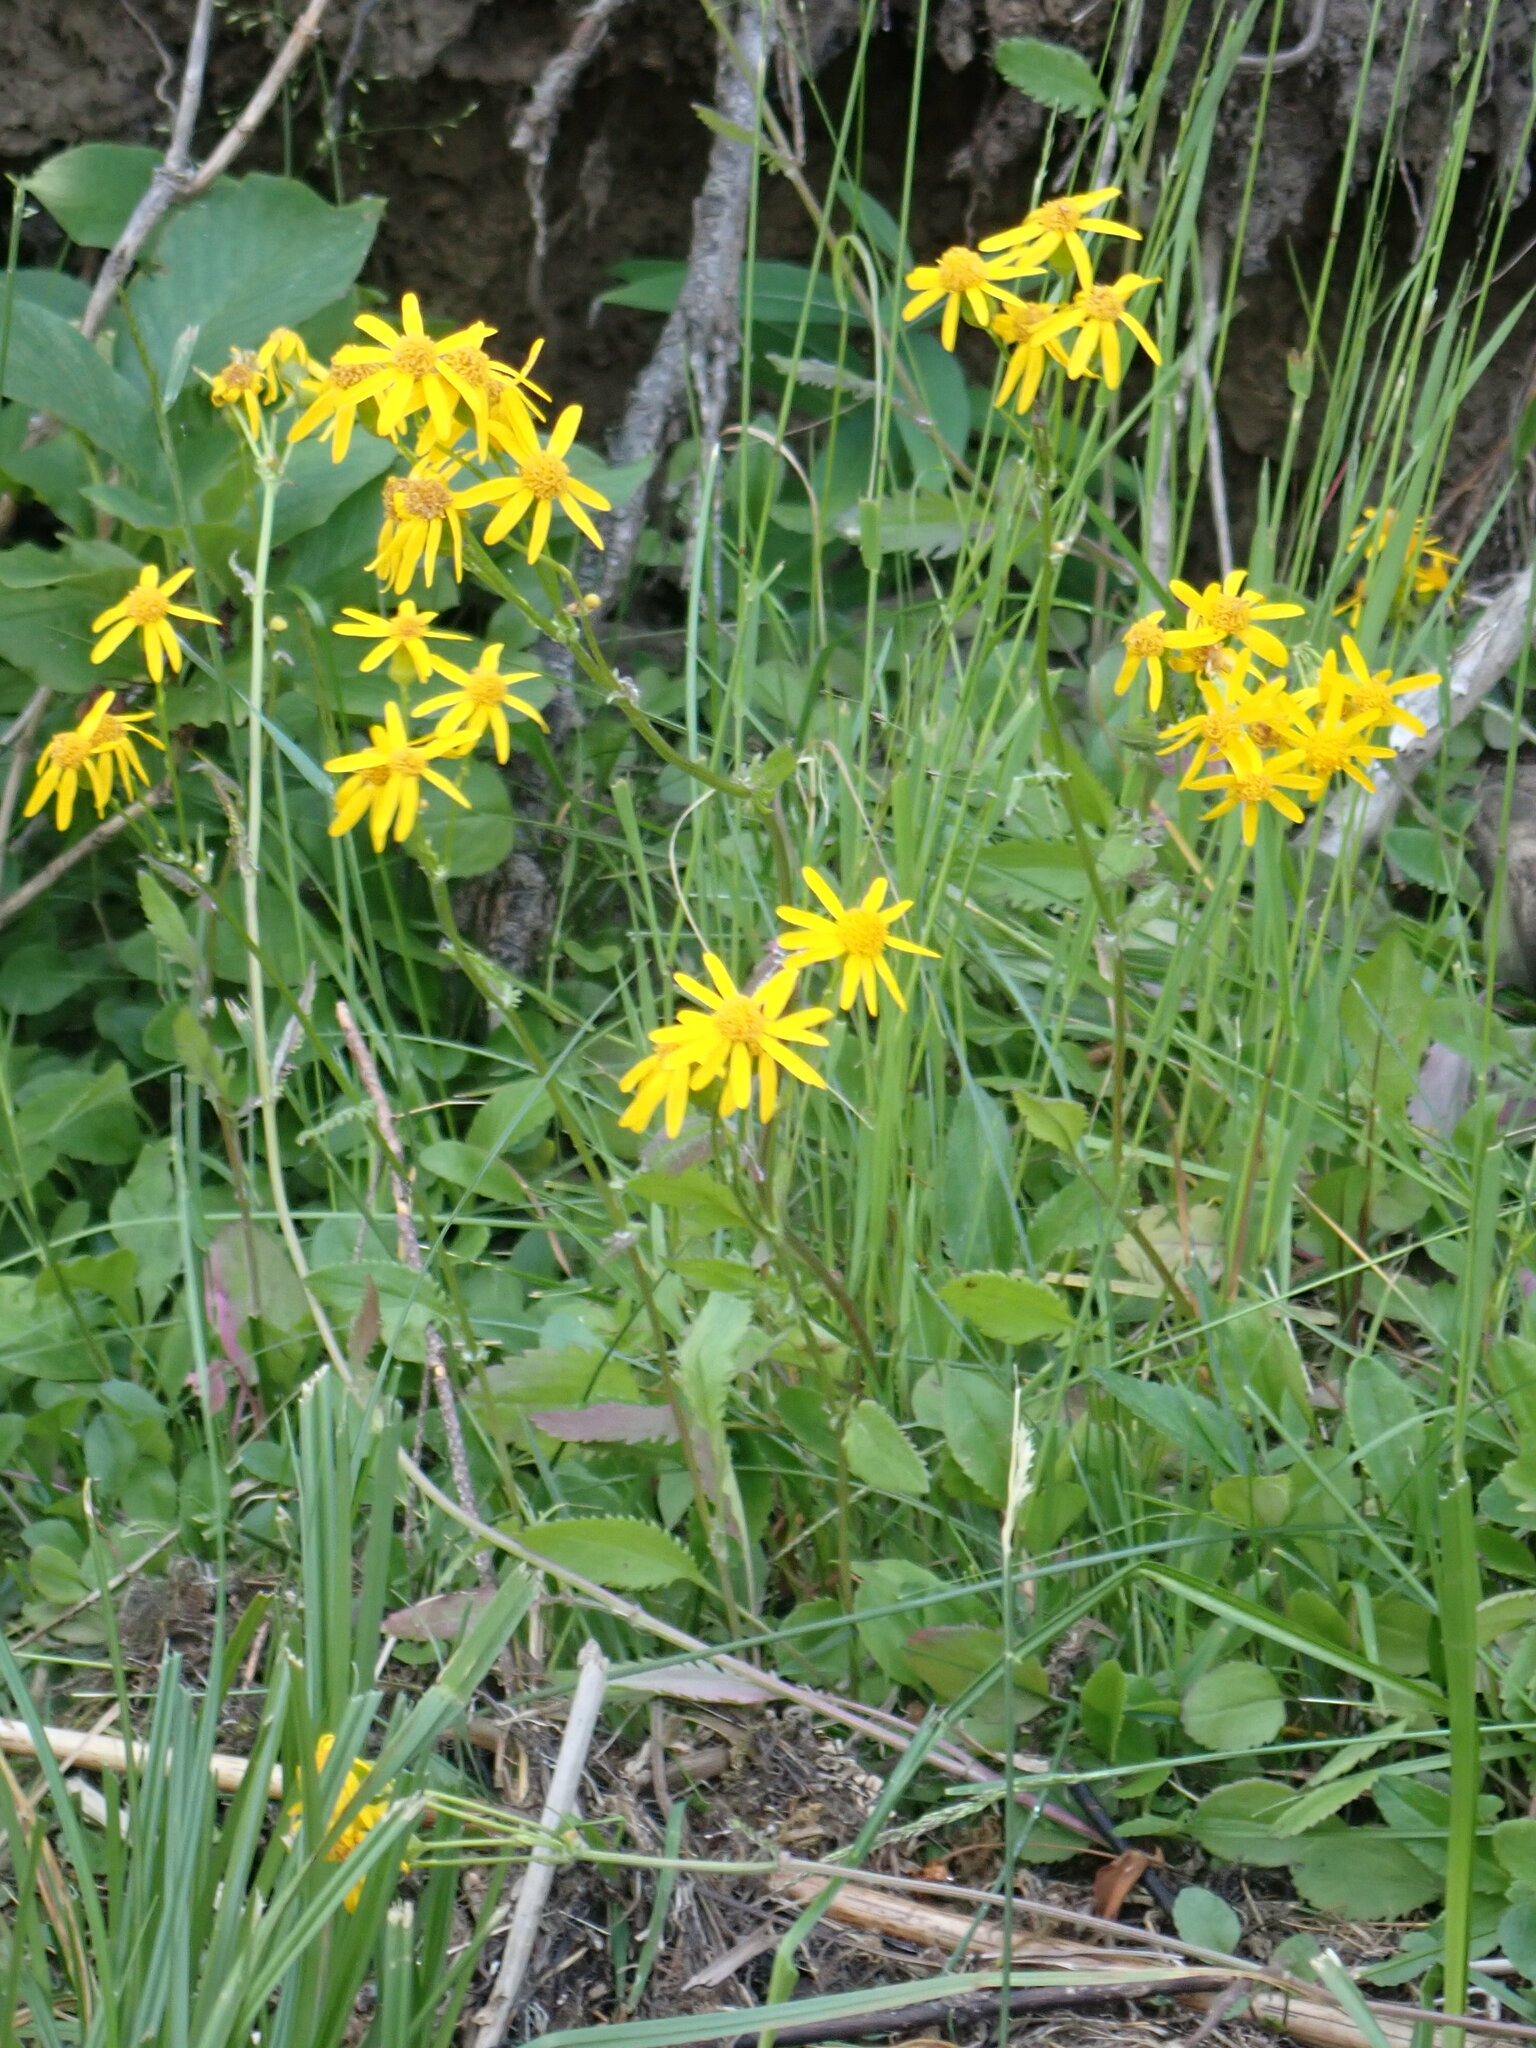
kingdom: Plantae
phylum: Tracheophyta
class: Magnoliopsida
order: Asterales
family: Asteraceae
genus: Packera
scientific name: Packera paupercula
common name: Balsam groundsel
